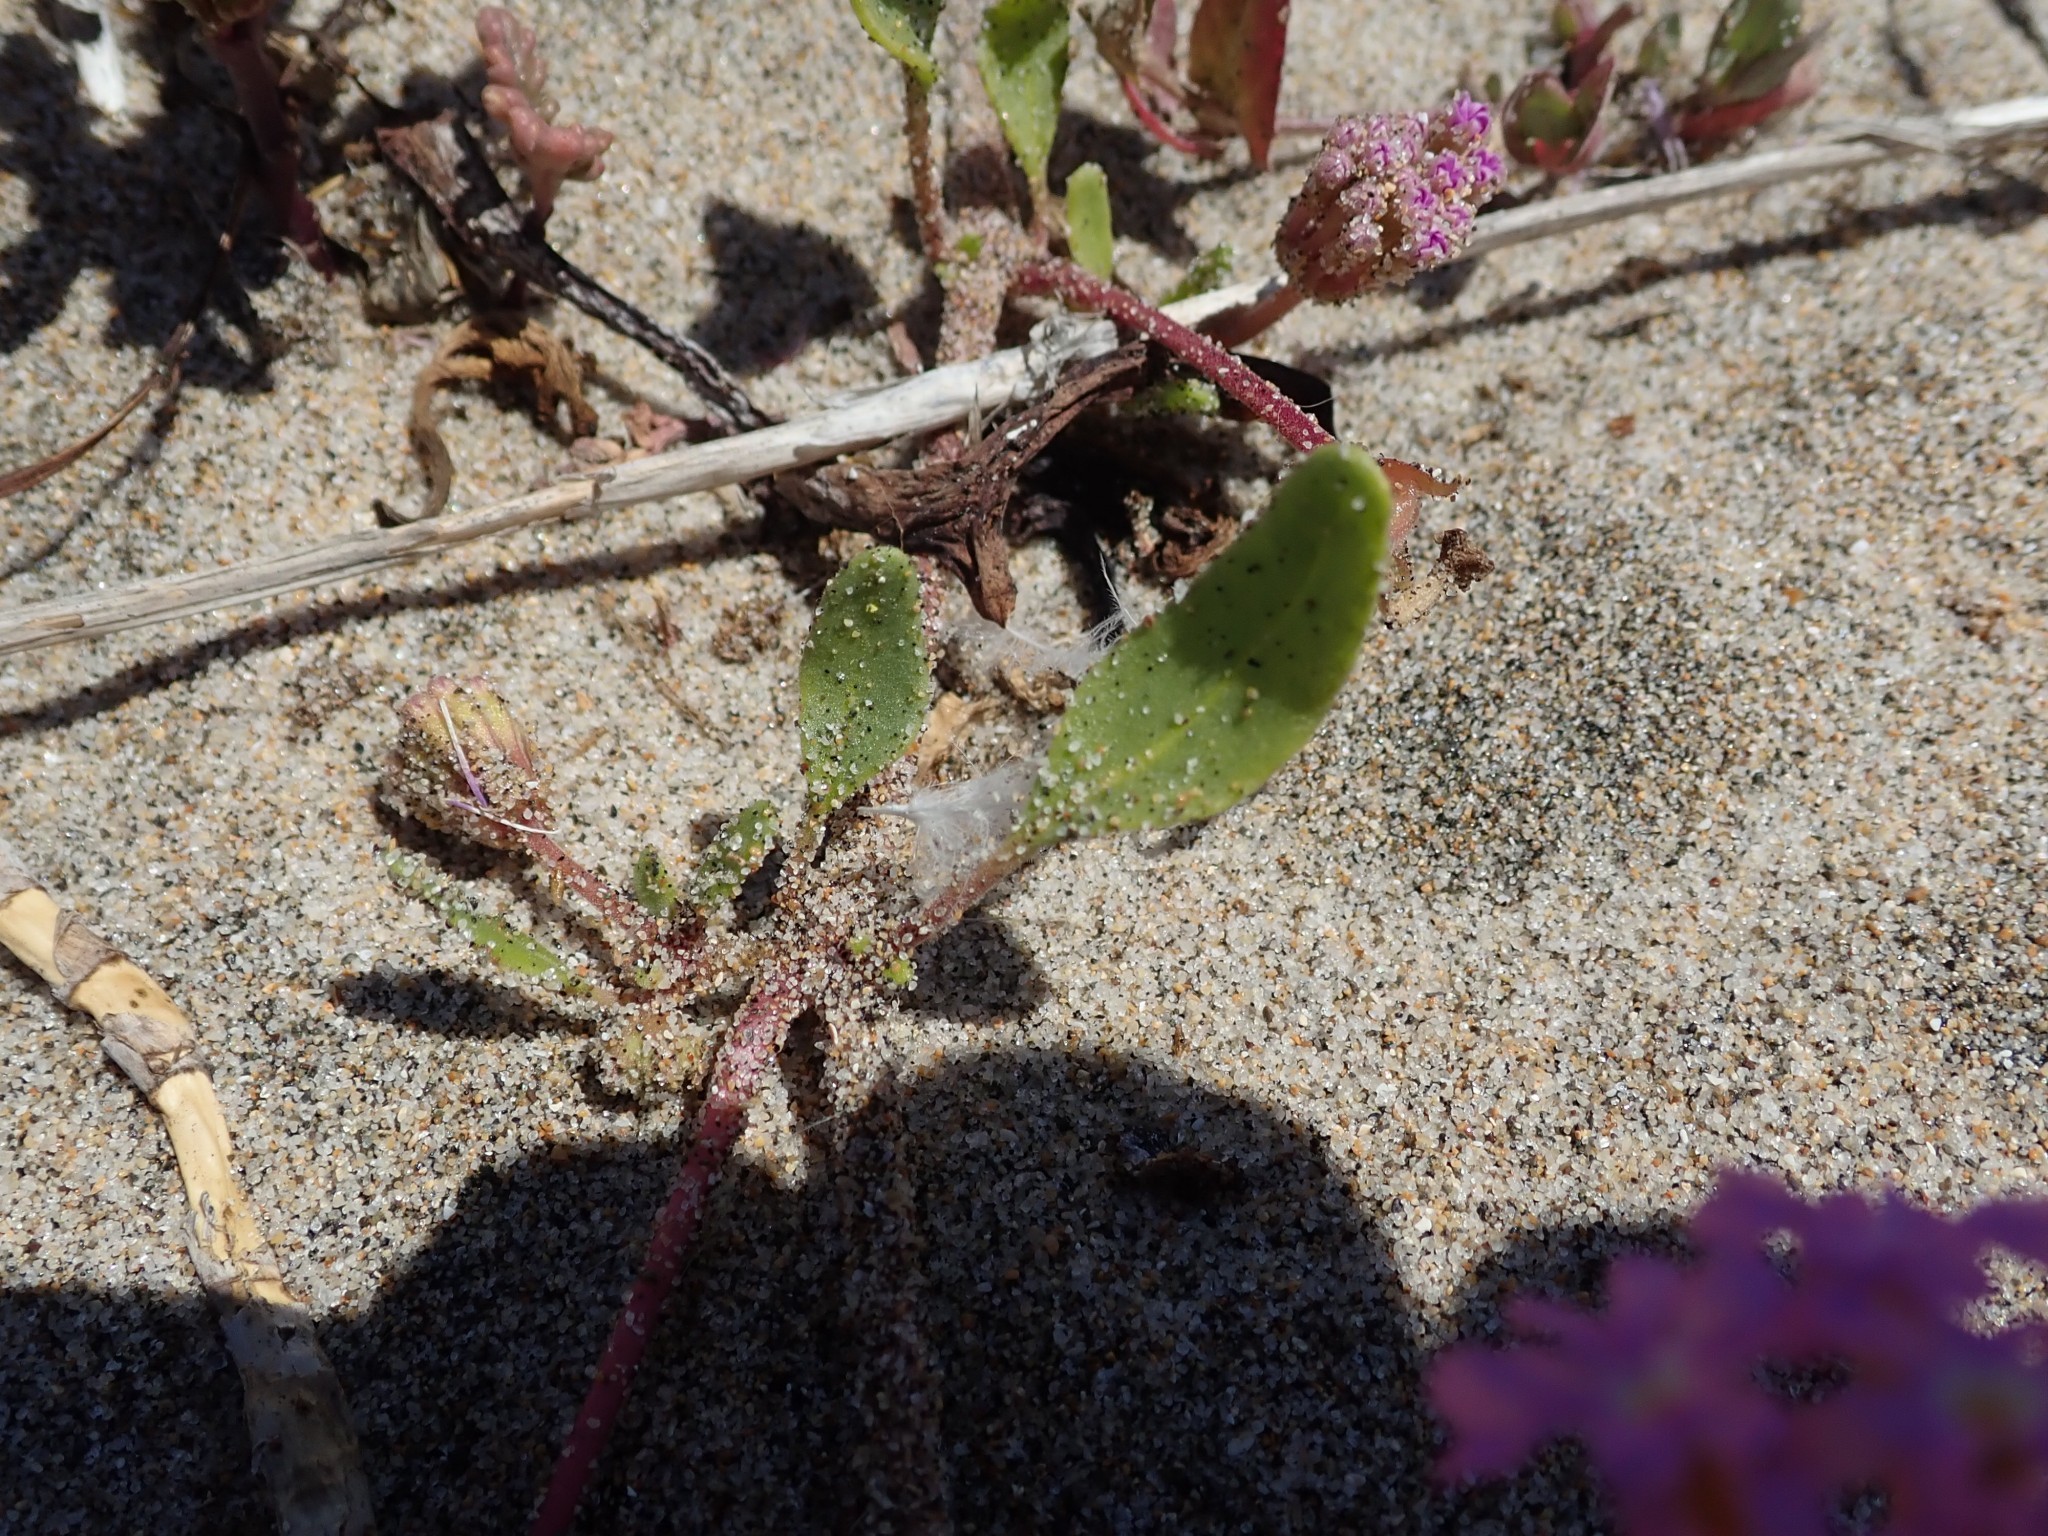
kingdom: Plantae
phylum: Tracheophyta
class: Magnoliopsida
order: Caryophyllales
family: Nyctaginaceae
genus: Abronia
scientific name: Abronia umbellata
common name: Sand-verbena
